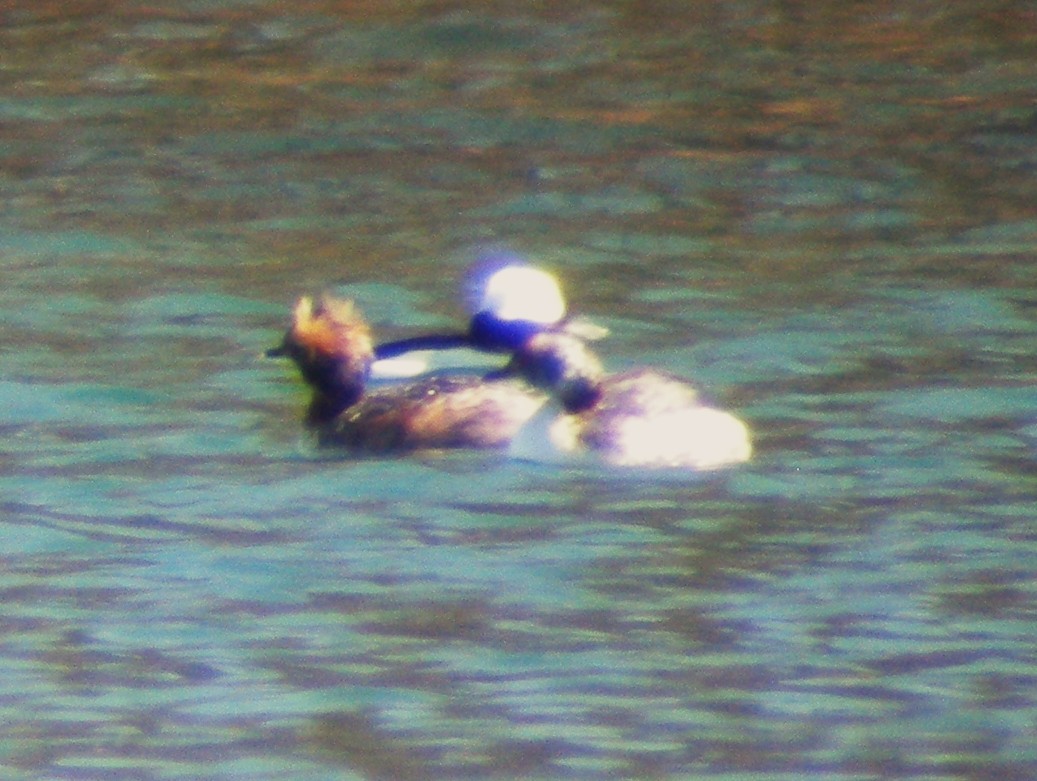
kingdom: Animalia
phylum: Chordata
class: Aves
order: Podicipediformes
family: Podicipedidae
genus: Podiceps
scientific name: Podiceps auritus
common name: Horned grebe
